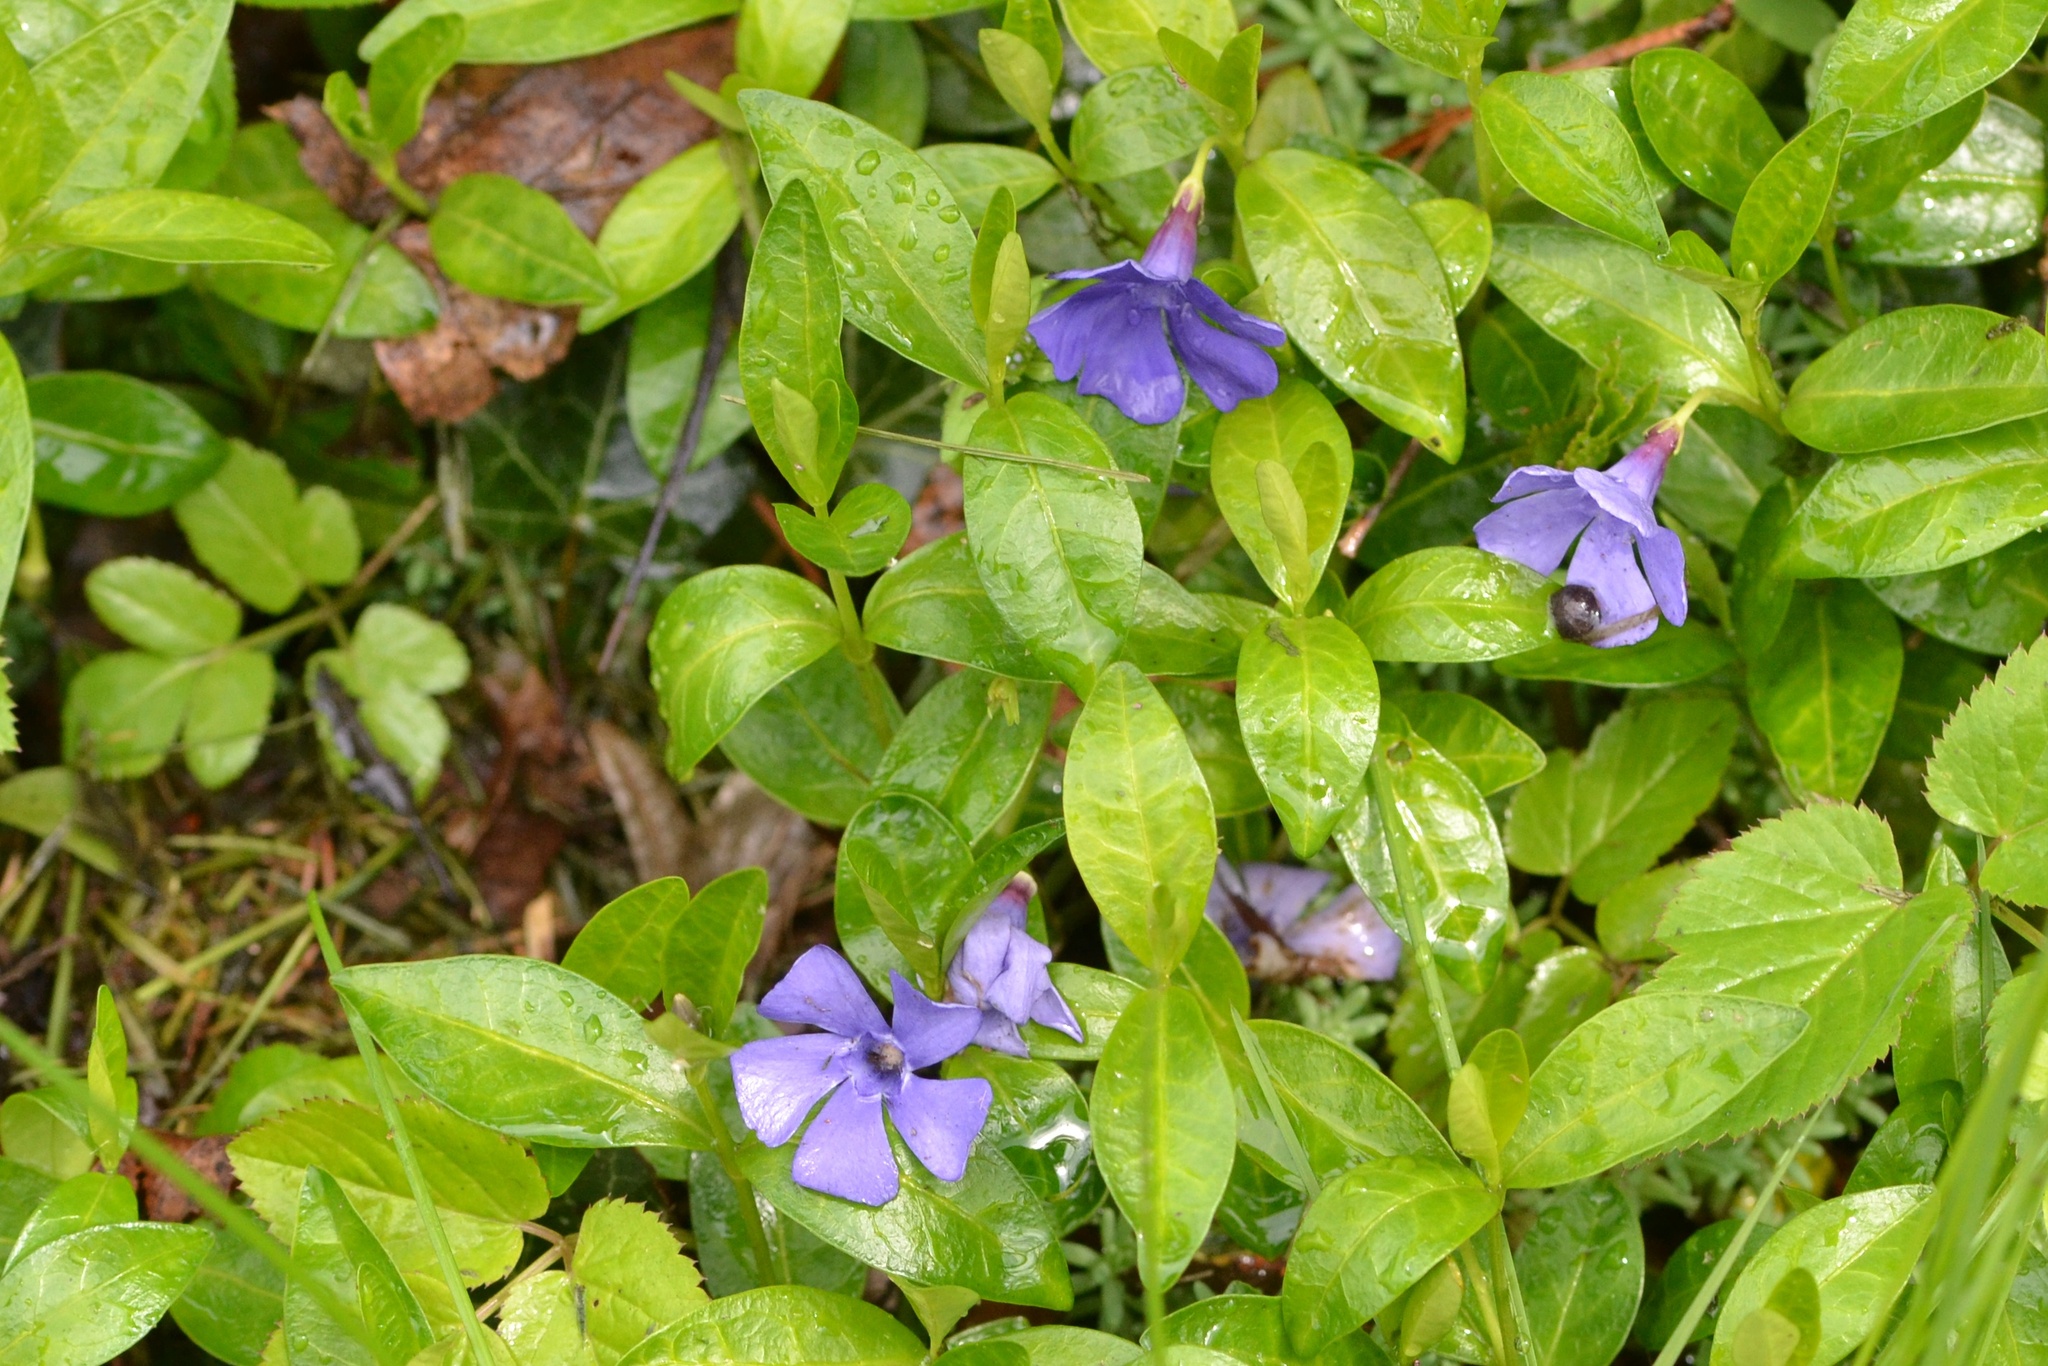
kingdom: Plantae
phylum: Tracheophyta
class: Magnoliopsida
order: Gentianales
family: Apocynaceae
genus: Vinca
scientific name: Vinca minor
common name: Lesser periwinkle
